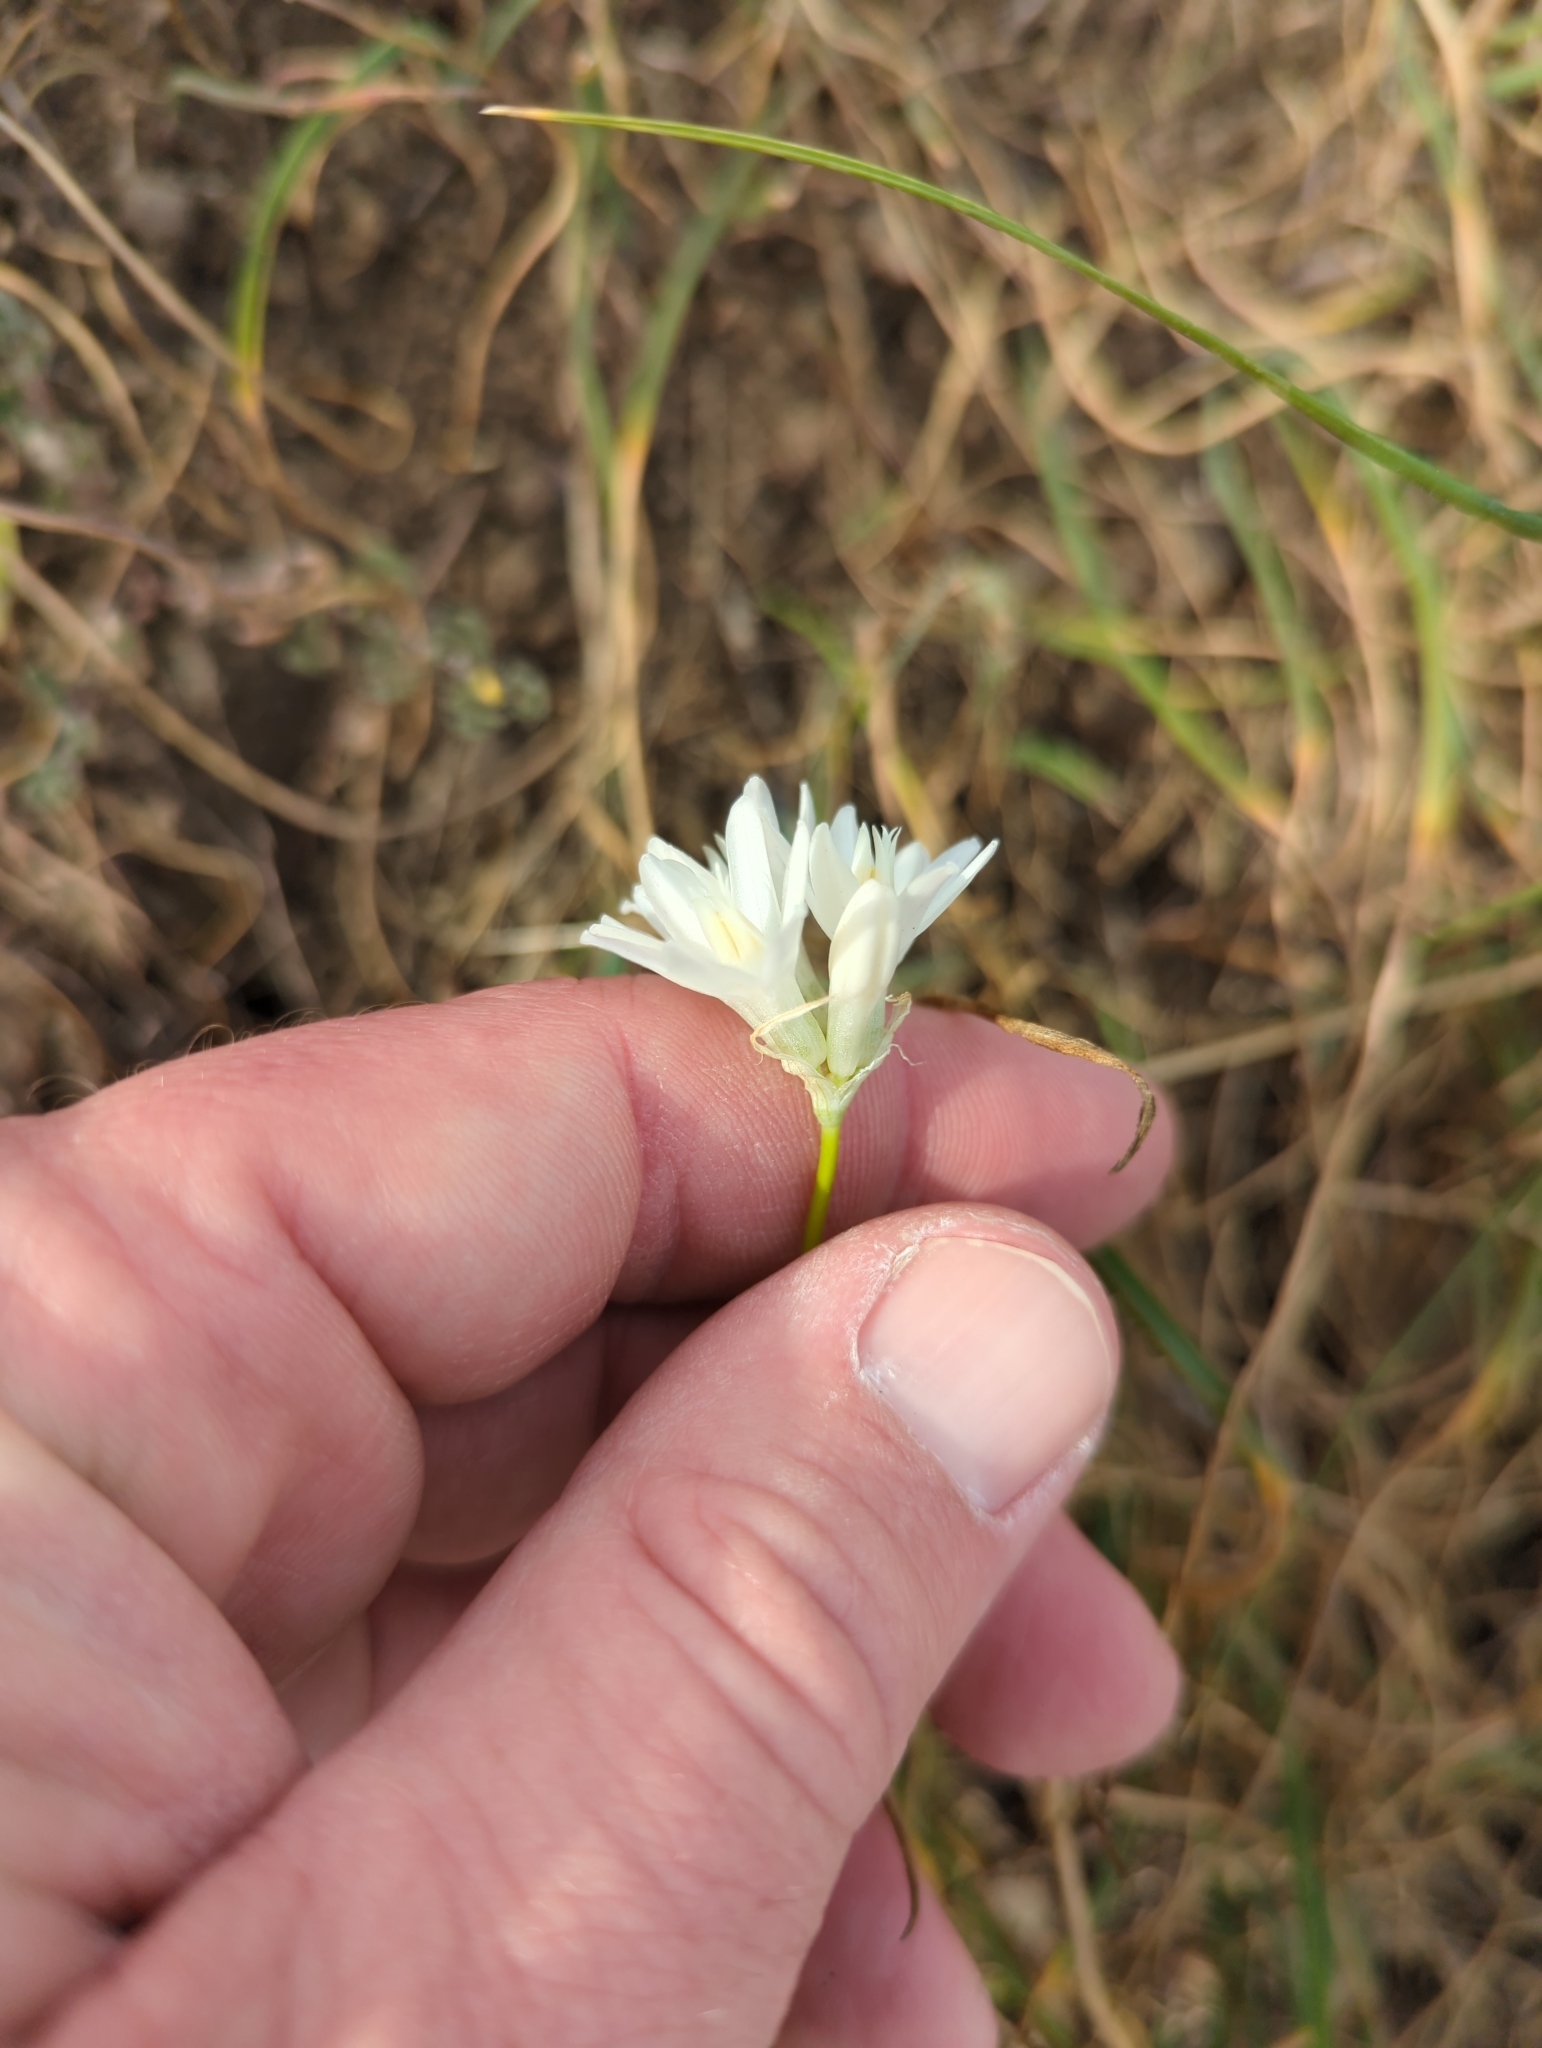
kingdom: Plantae
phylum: Tracheophyta
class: Liliopsida
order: Asparagales
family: Asparagaceae
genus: Dipterostemon
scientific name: Dipterostemon capitatus
